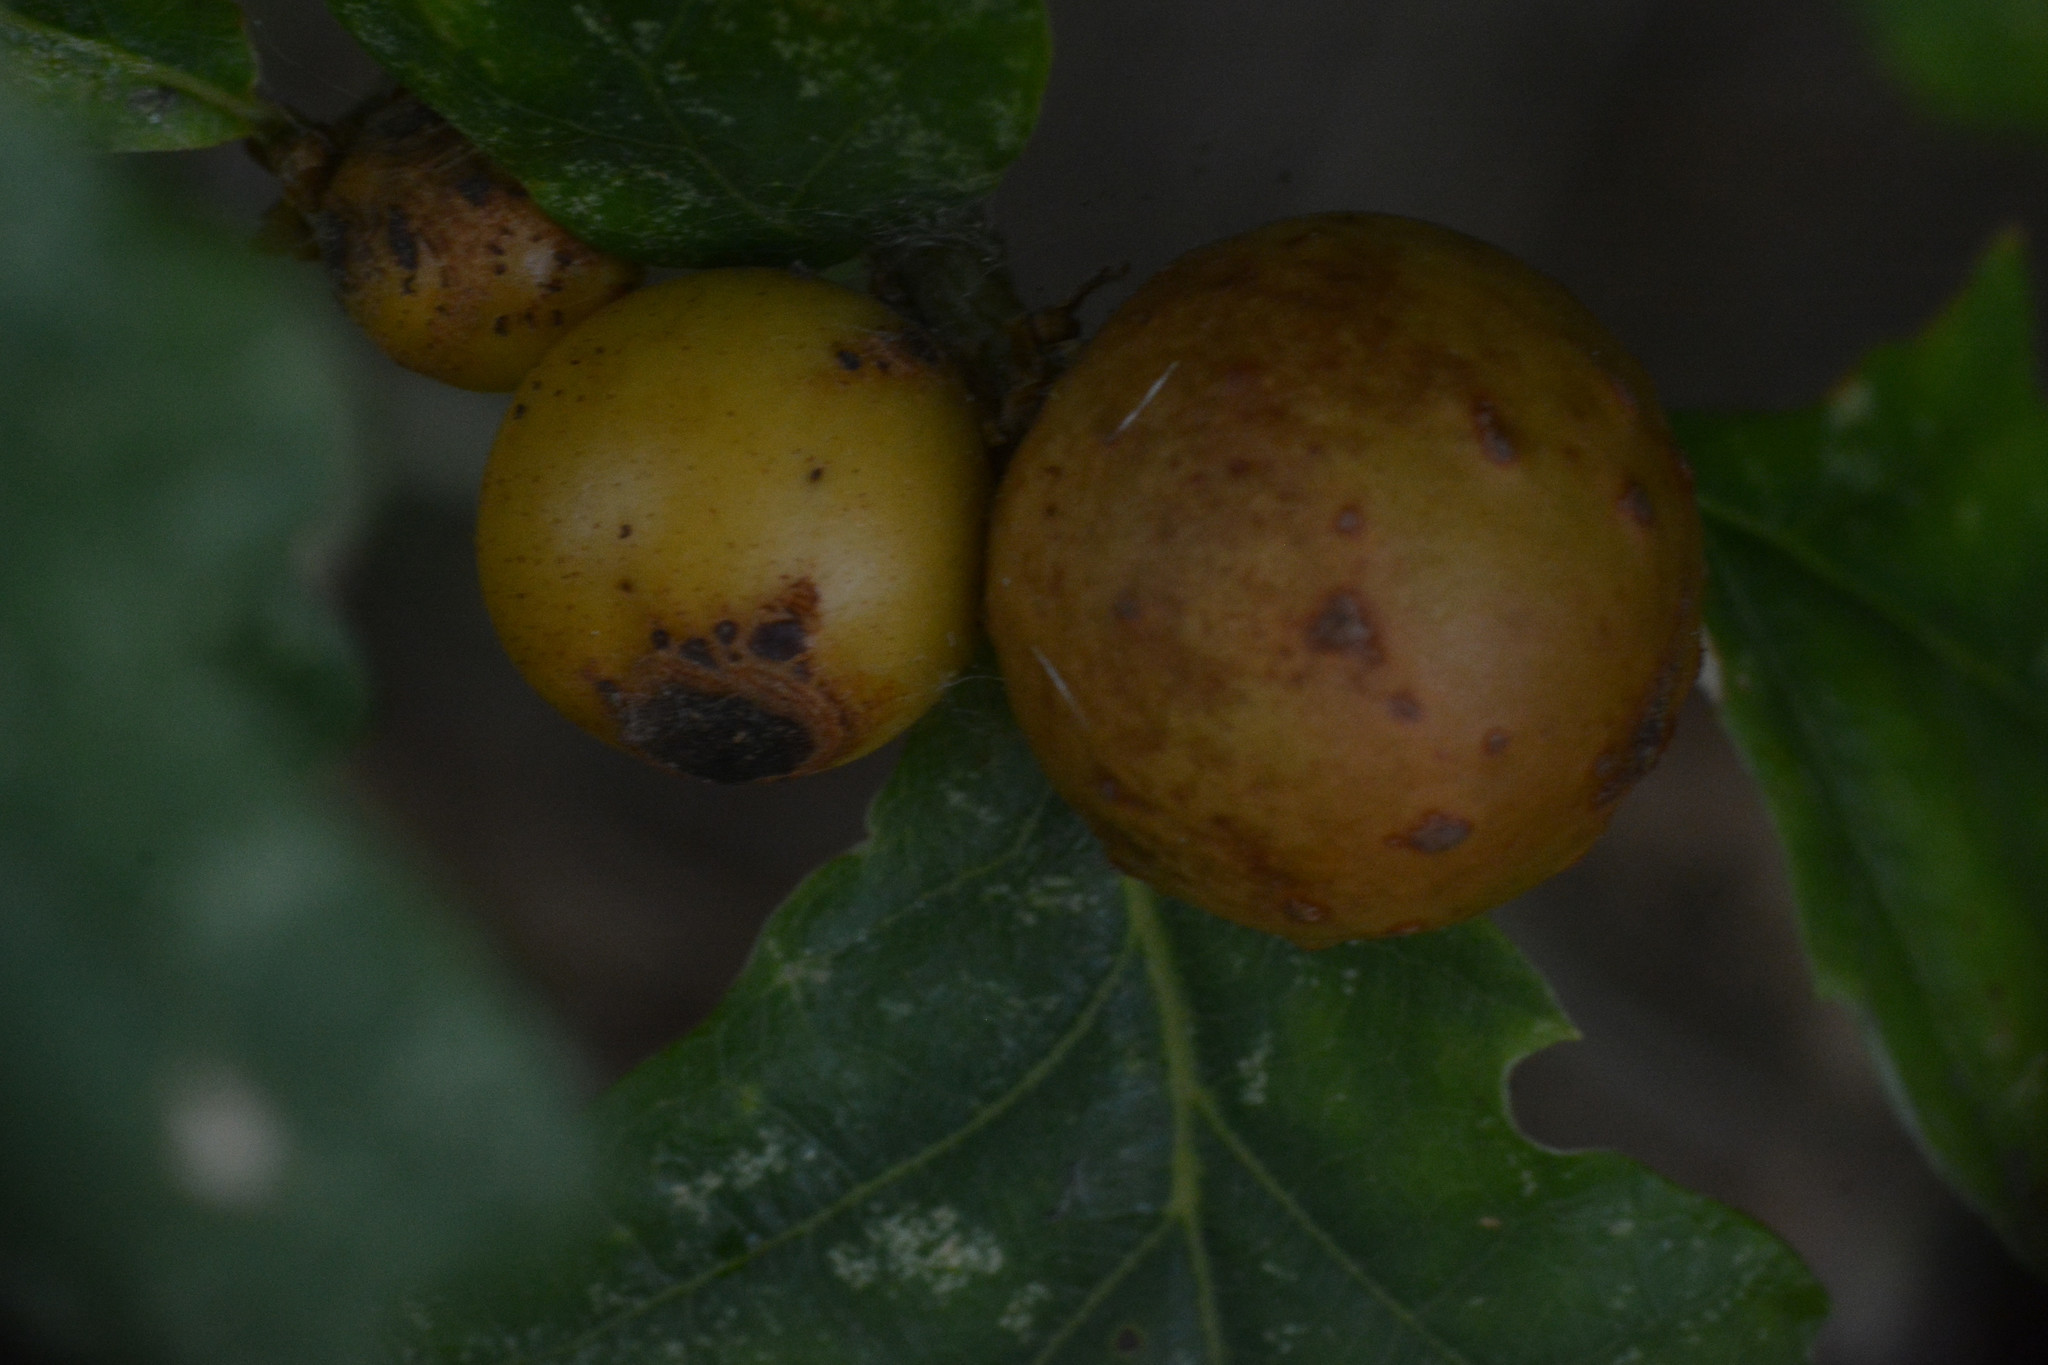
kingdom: Animalia
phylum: Arthropoda
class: Insecta
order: Hymenoptera
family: Cynipidae
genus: Andricus
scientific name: Andricus kollari
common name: Marble gall
